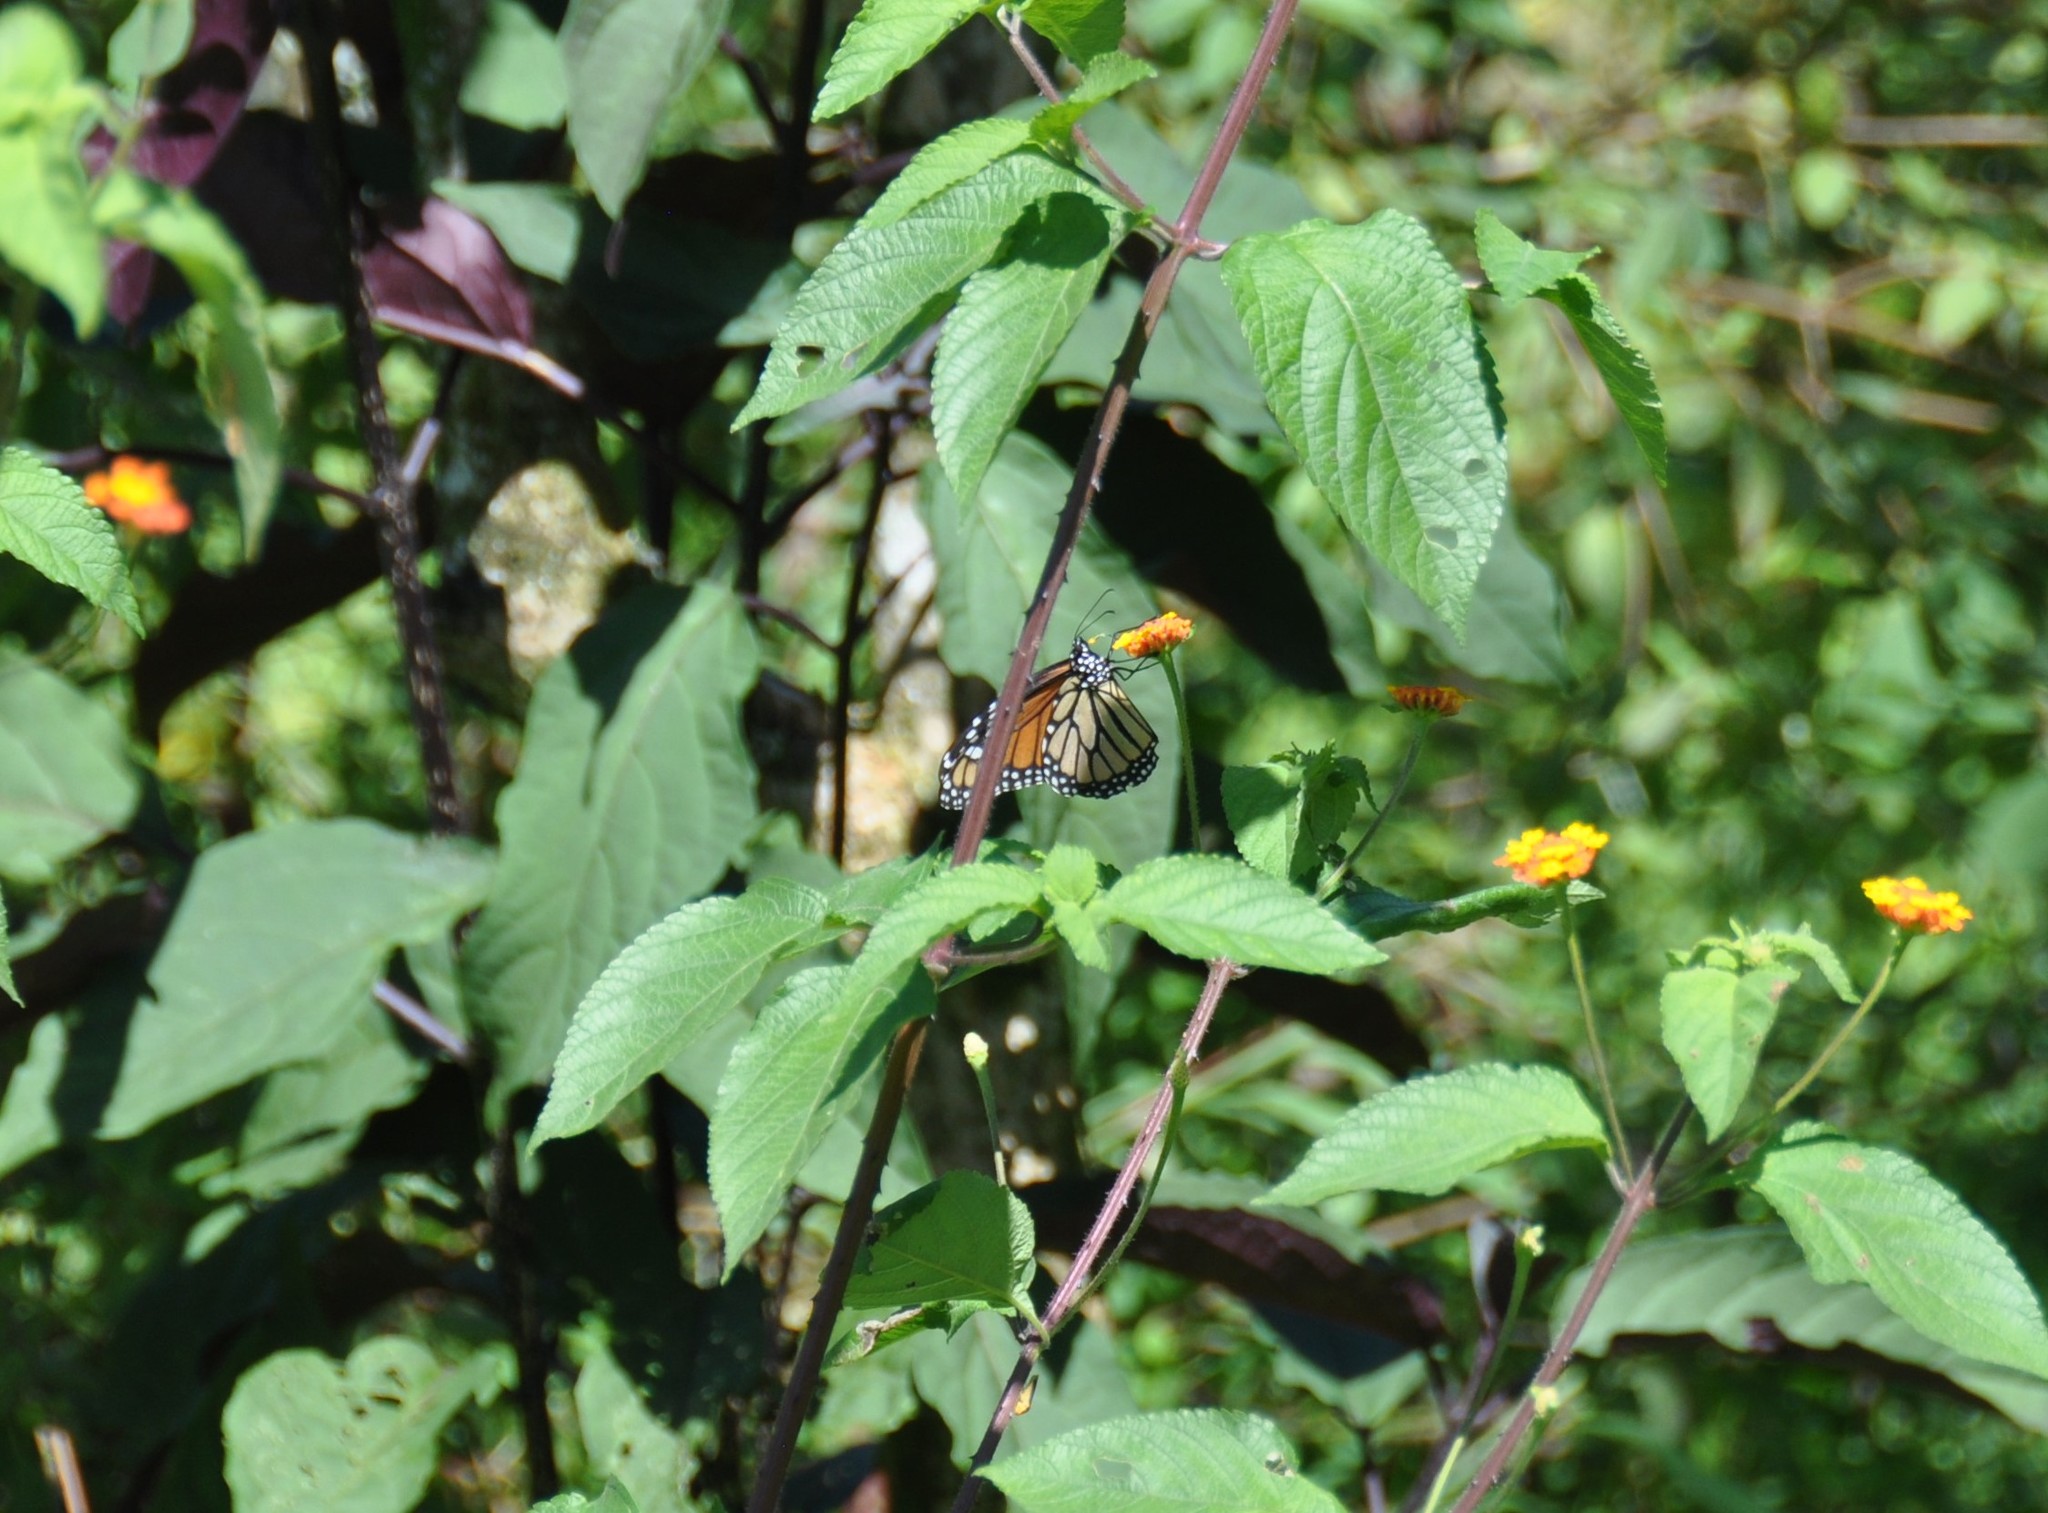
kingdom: Animalia
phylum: Arthropoda
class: Insecta
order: Lepidoptera
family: Nymphalidae
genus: Danaus
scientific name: Danaus plexippus
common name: Monarch
